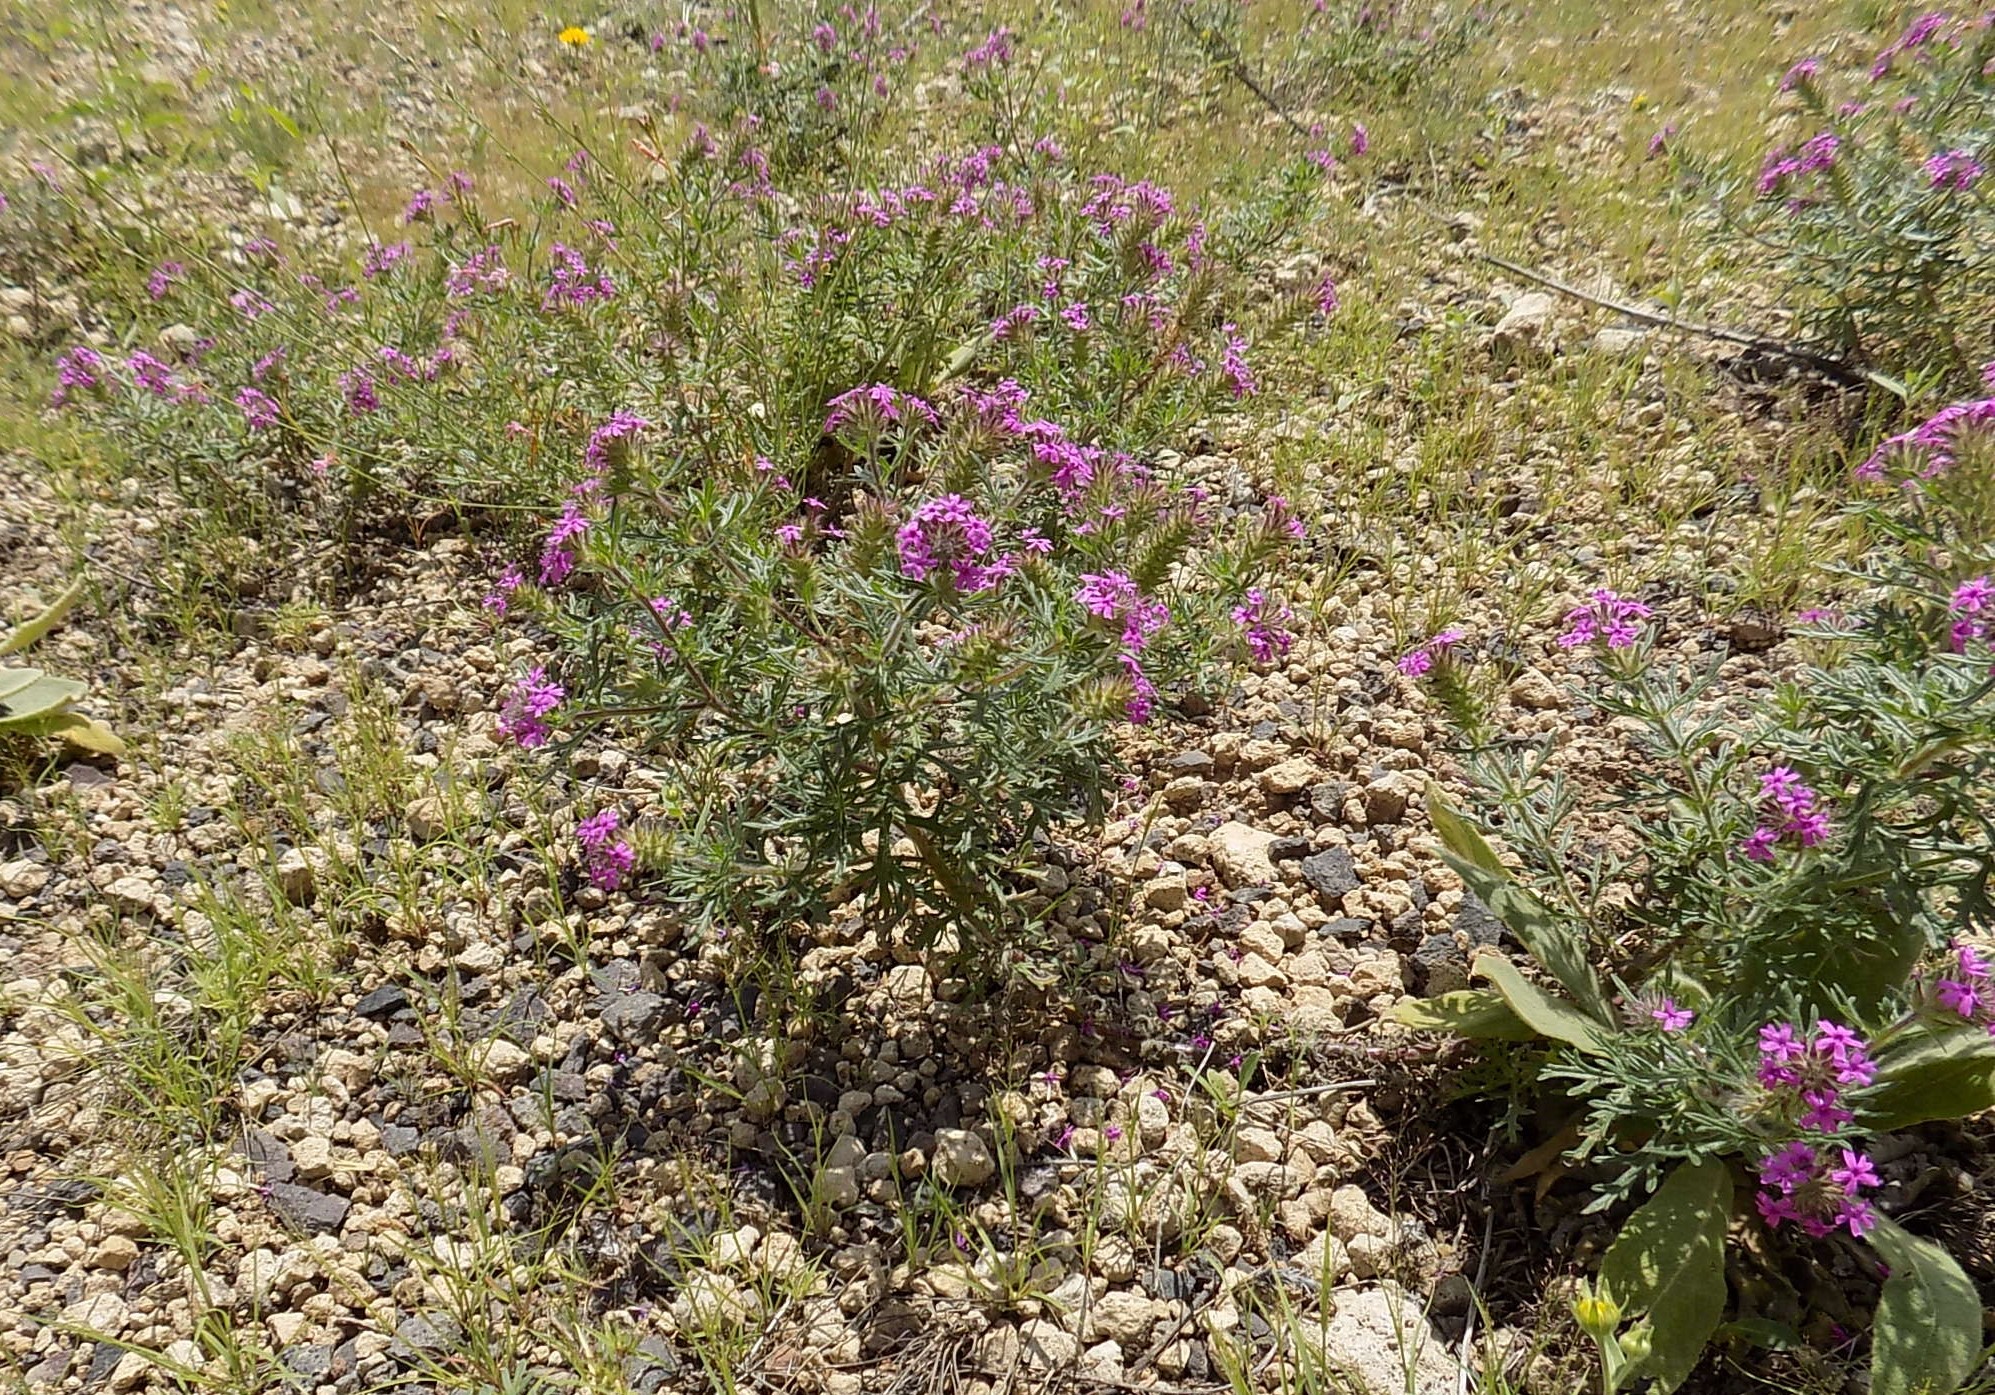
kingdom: Plantae
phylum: Tracheophyta
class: Magnoliopsida
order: Lamiales
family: Verbenaceae
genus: Verbena
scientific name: Verbena chiricahensis
